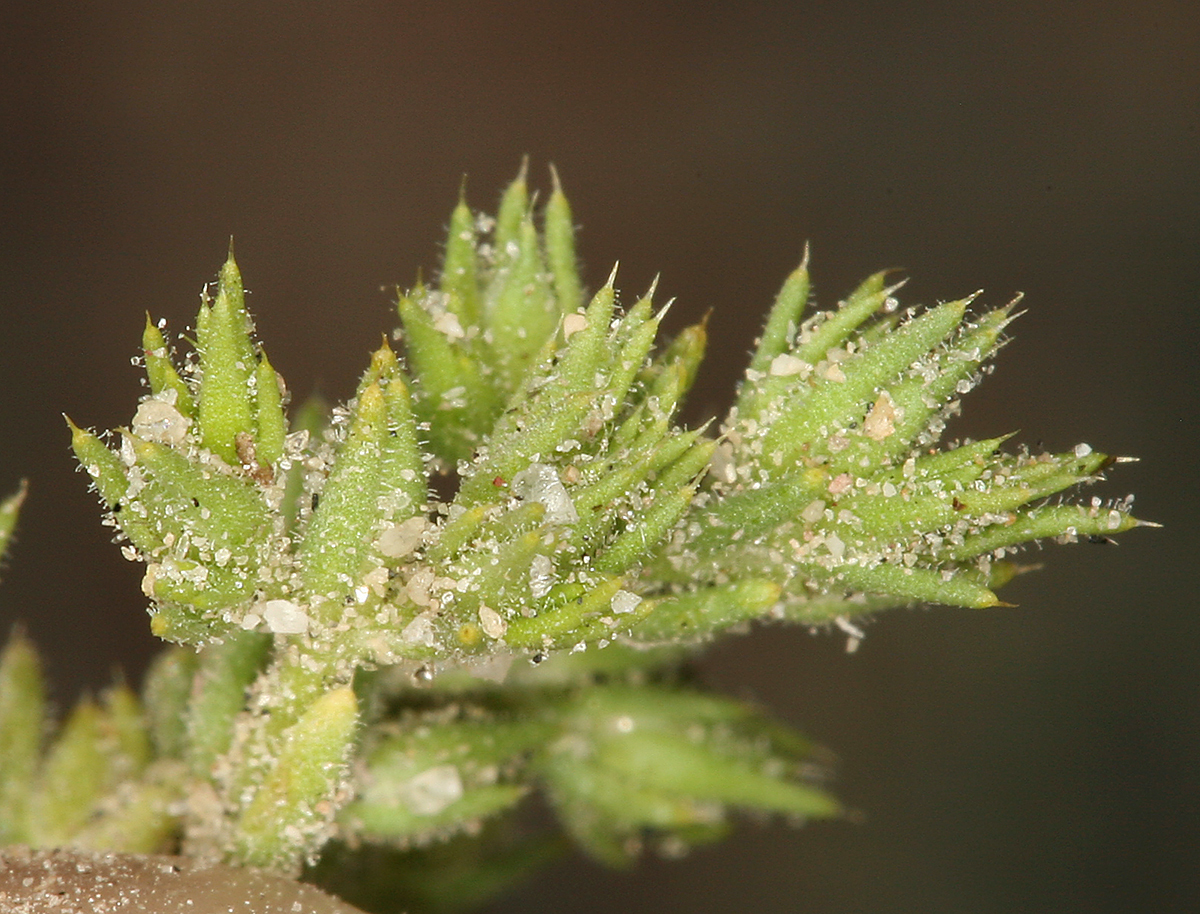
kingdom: Plantae
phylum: Tracheophyta
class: Magnoliopsida
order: Caryophyllales
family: Caryophyllaceae
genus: Loeflingia
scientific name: Loeflingia squarrosa
